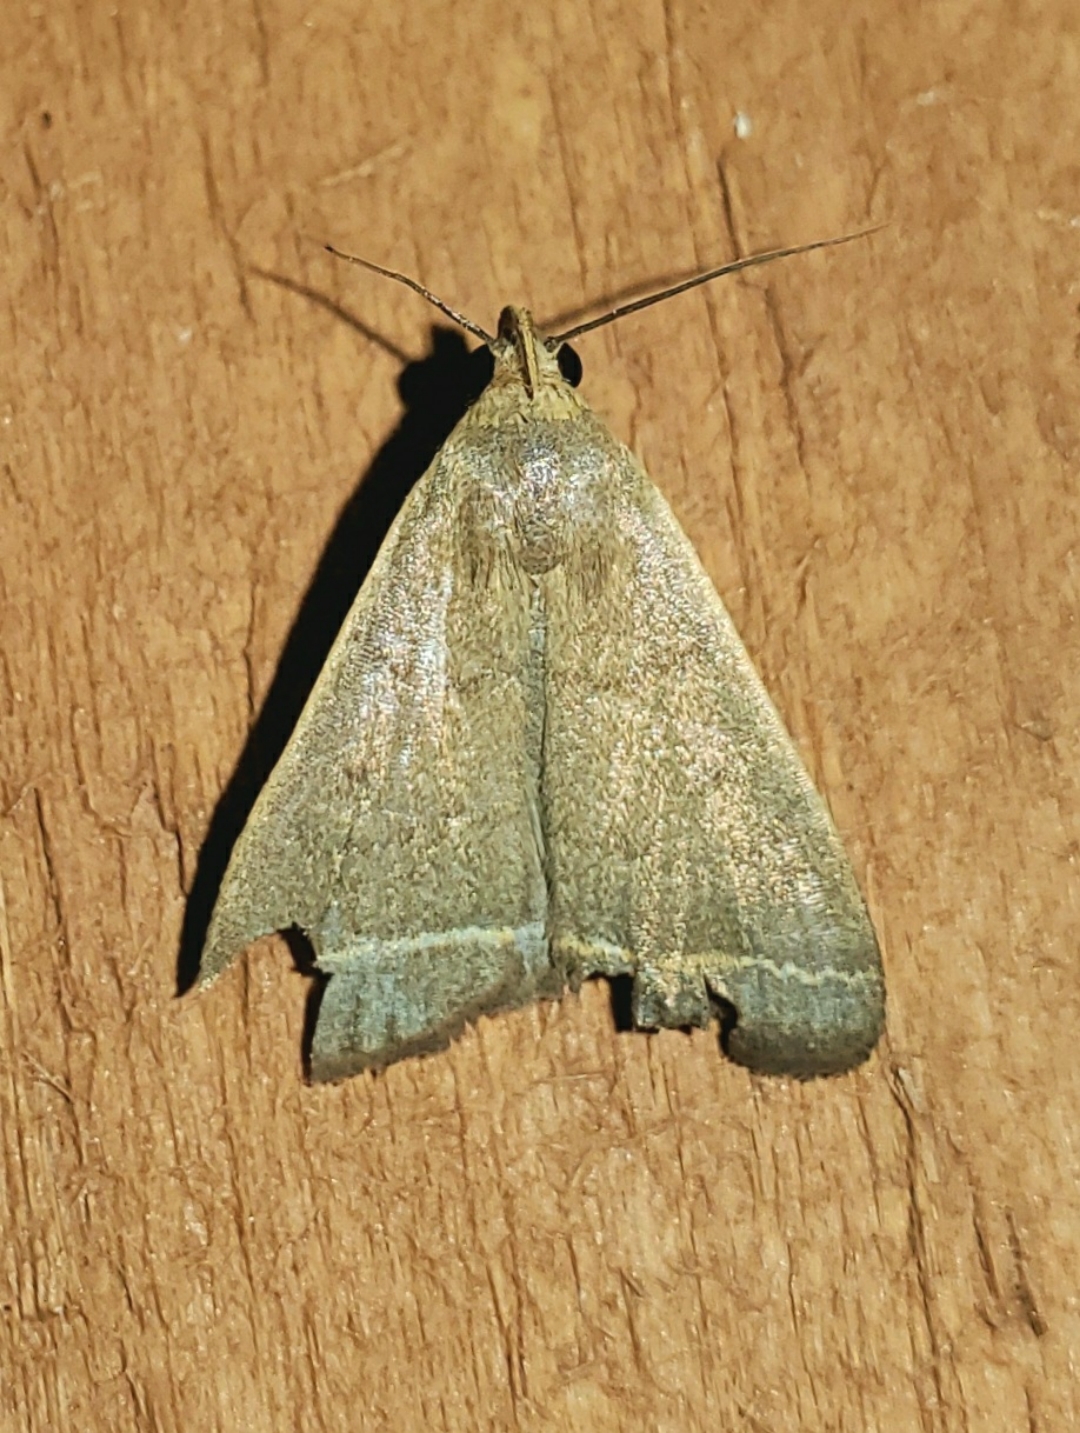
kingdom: Animalia
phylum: Arthropoda
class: Insecta
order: Lepidoptera
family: Erebidae
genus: Simplicia
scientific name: Simplicia cornicalis
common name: Tiki hut litter moth
